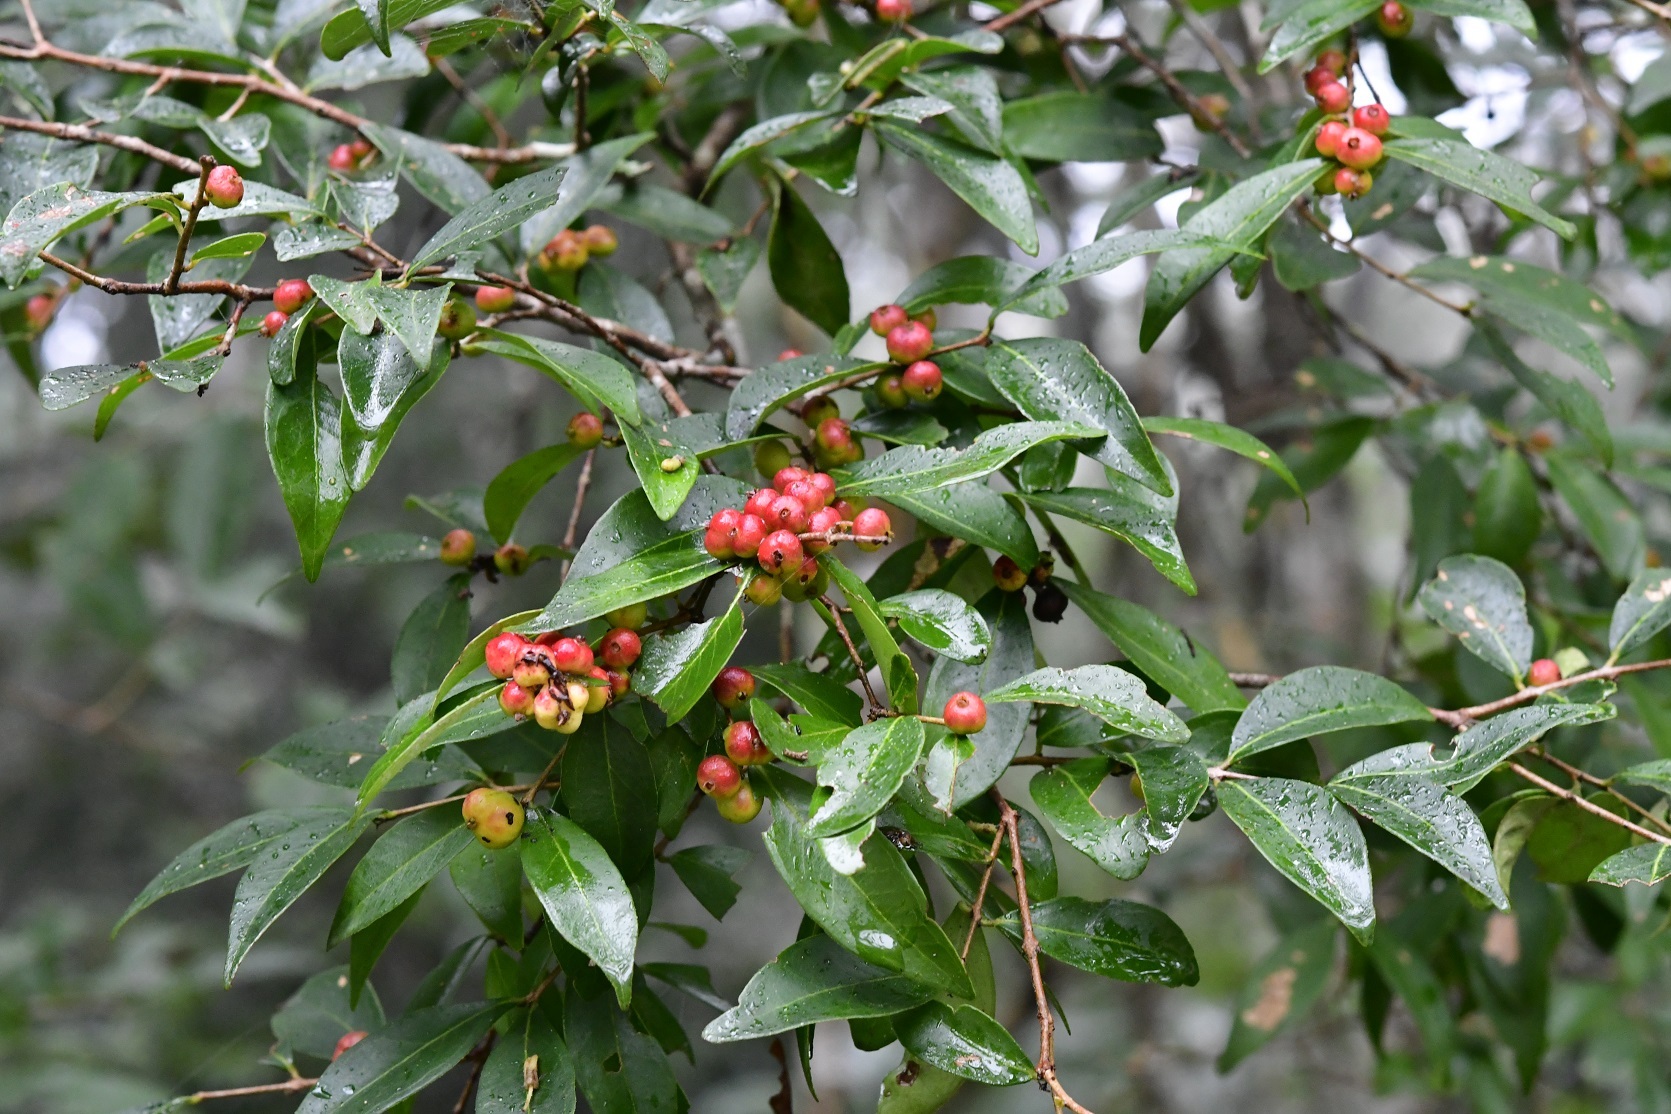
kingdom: Plantae
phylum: Tracheophyta
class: Magnoliopsida
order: Myrtales
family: Myrtaceae
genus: Eugenia
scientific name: Eugenia capuli
